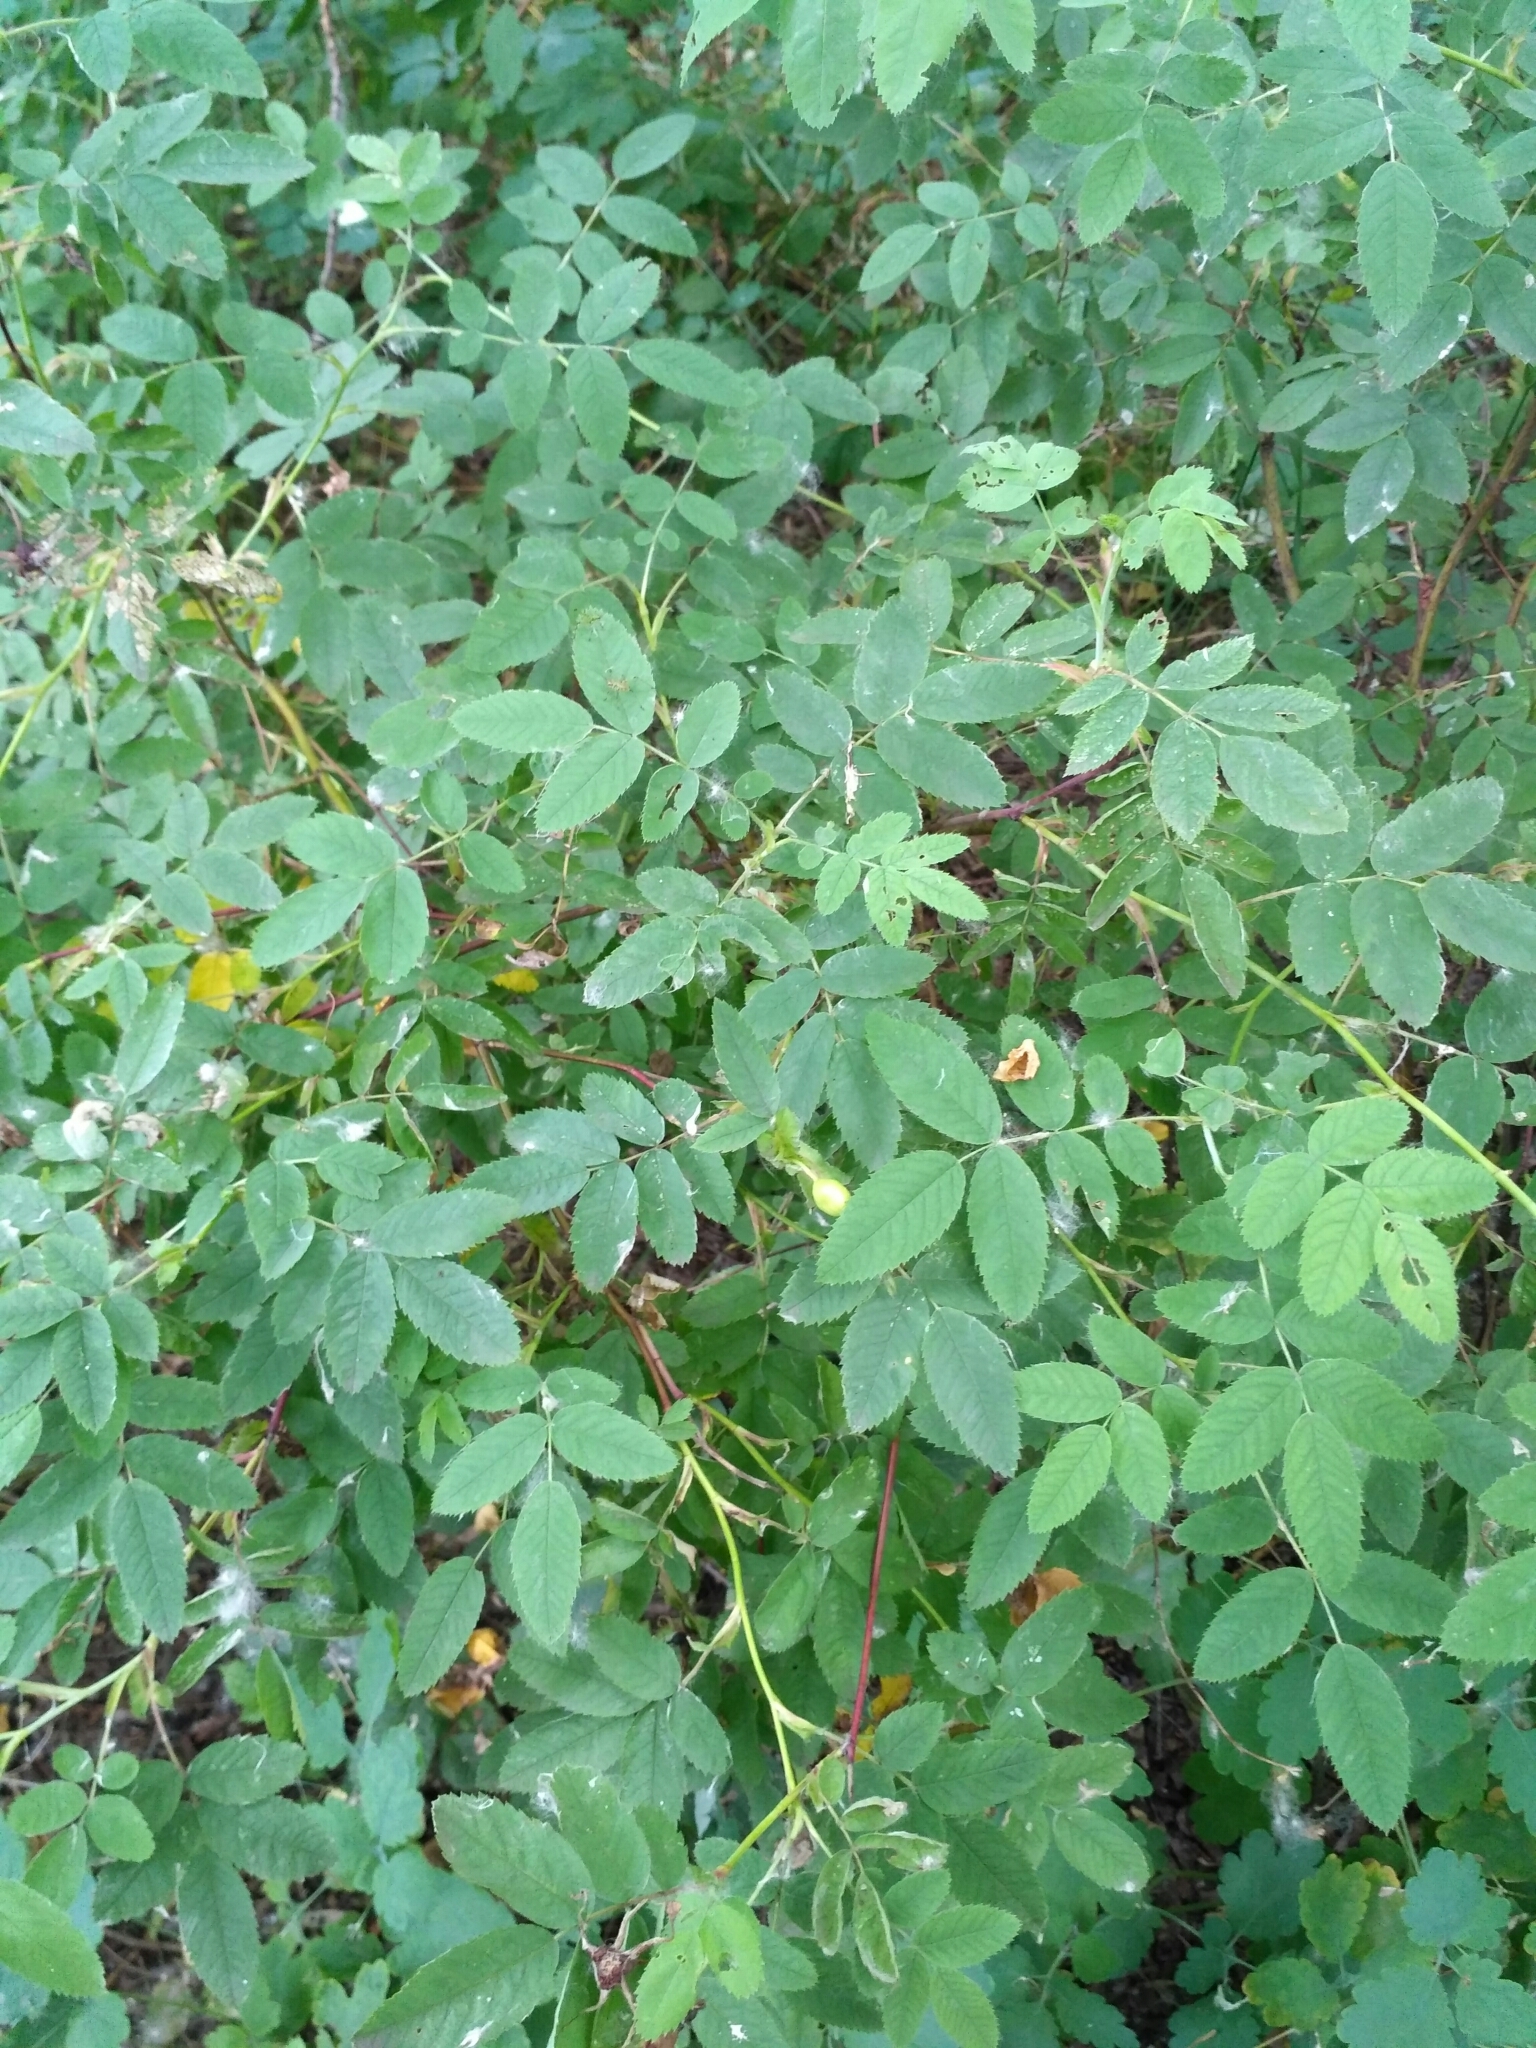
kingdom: Plantae
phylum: Tracheophyta
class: Magnoliopsida
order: Rosales
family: Rosaceae
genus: Rosa
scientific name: Rosa majalis
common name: Cinnamon rose
